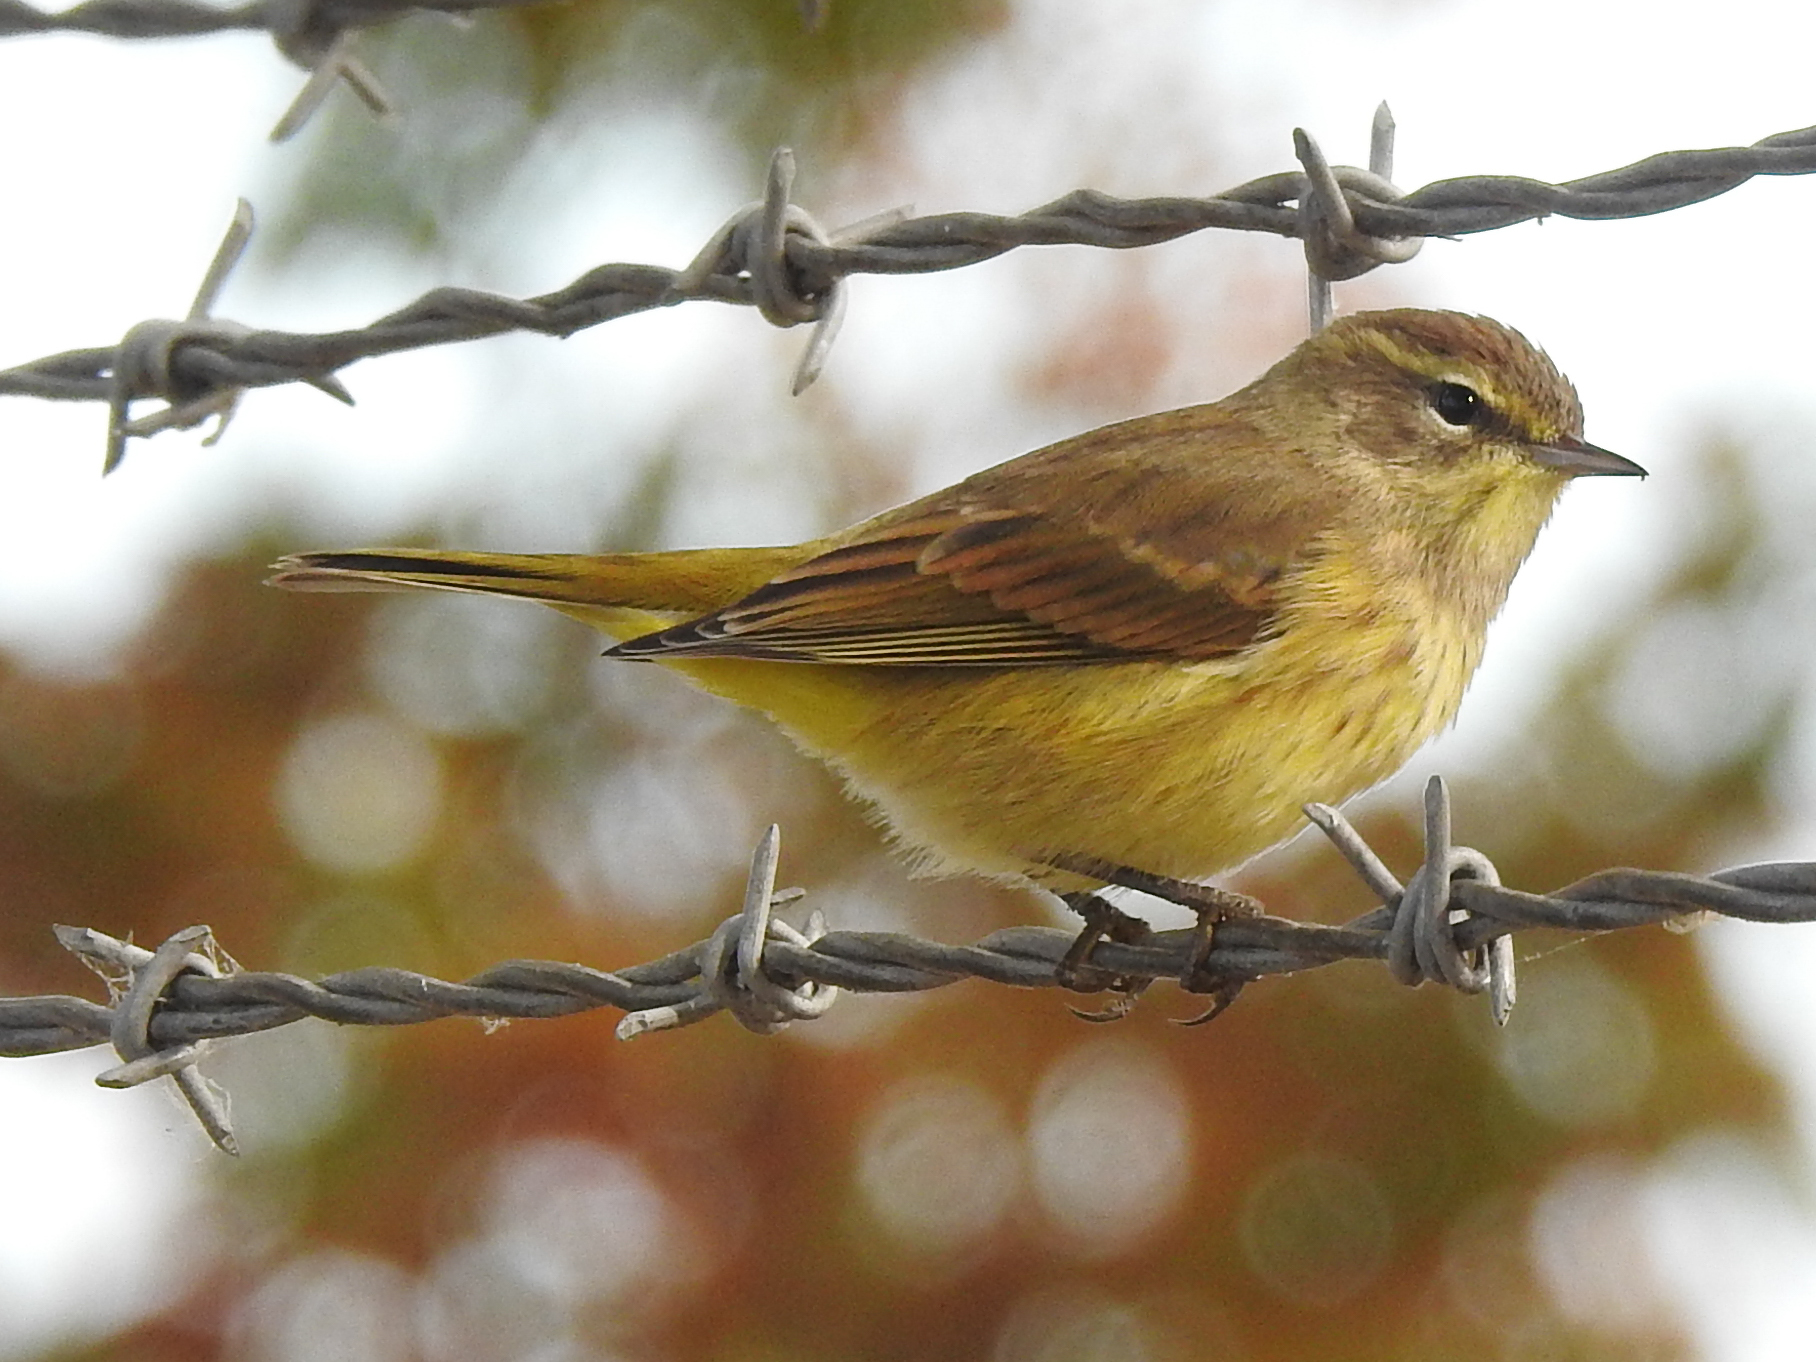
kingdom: Animalia
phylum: Chordata
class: Aves
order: Passeriformes
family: Parulidae
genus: Setophaga
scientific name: Setophaga palmarum
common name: Palm warbler
